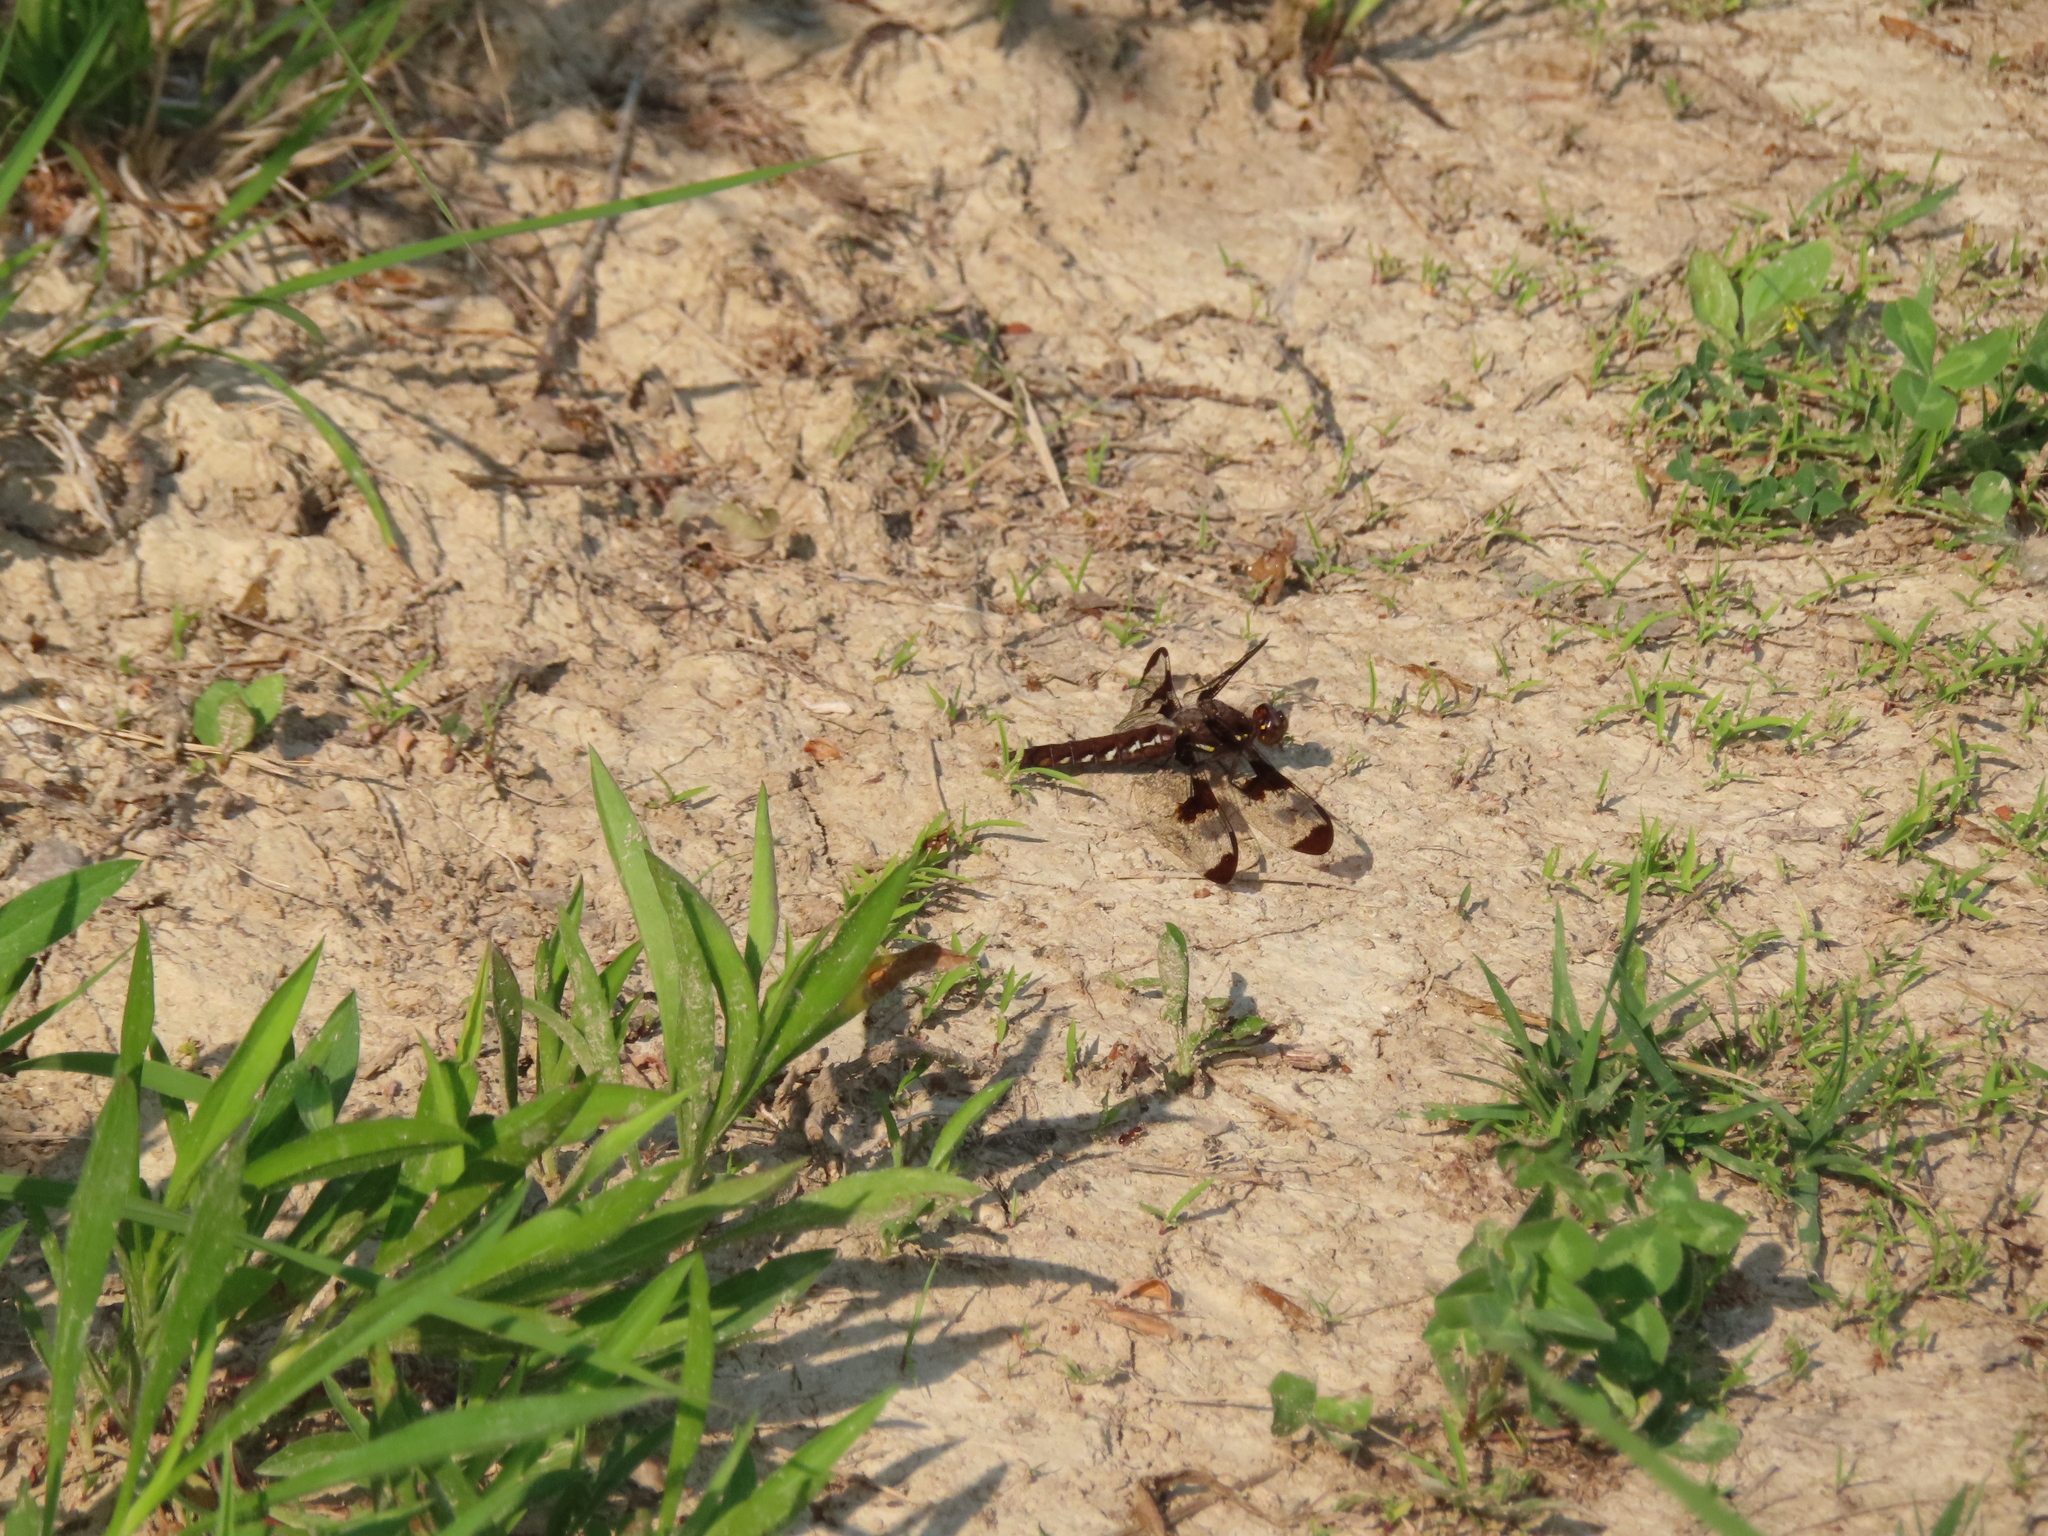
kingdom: Animalia
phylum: Arthropoda
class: Insecta
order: Odonata
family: Libellulidae
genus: Plathemis
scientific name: Plathemis lydia
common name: Common whitetail
